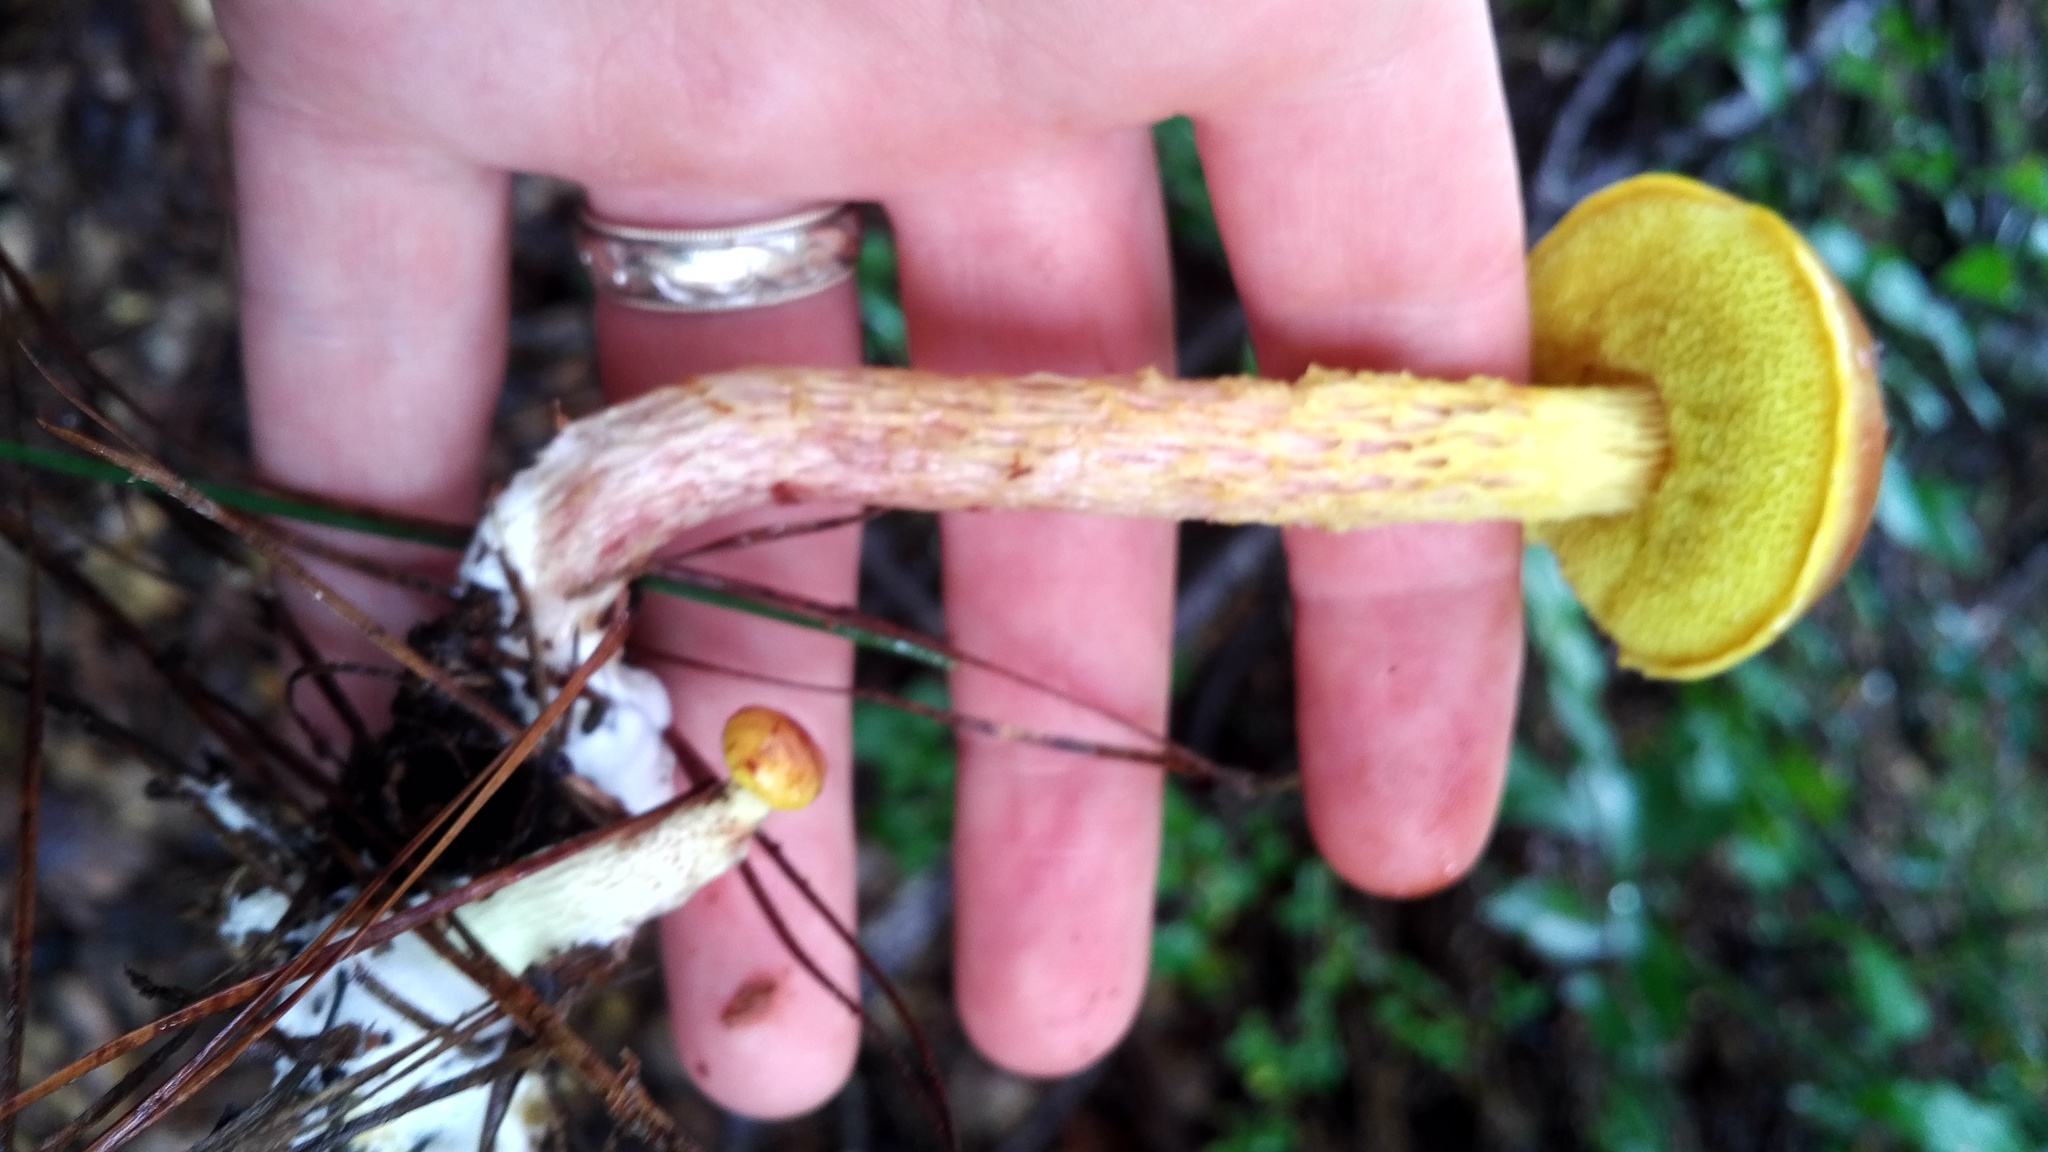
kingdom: Fungi
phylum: Basidiomycota
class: Agaricomycetes
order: Boletales
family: Boletaceae
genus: Aureoboletus
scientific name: Aureoboletus betula
